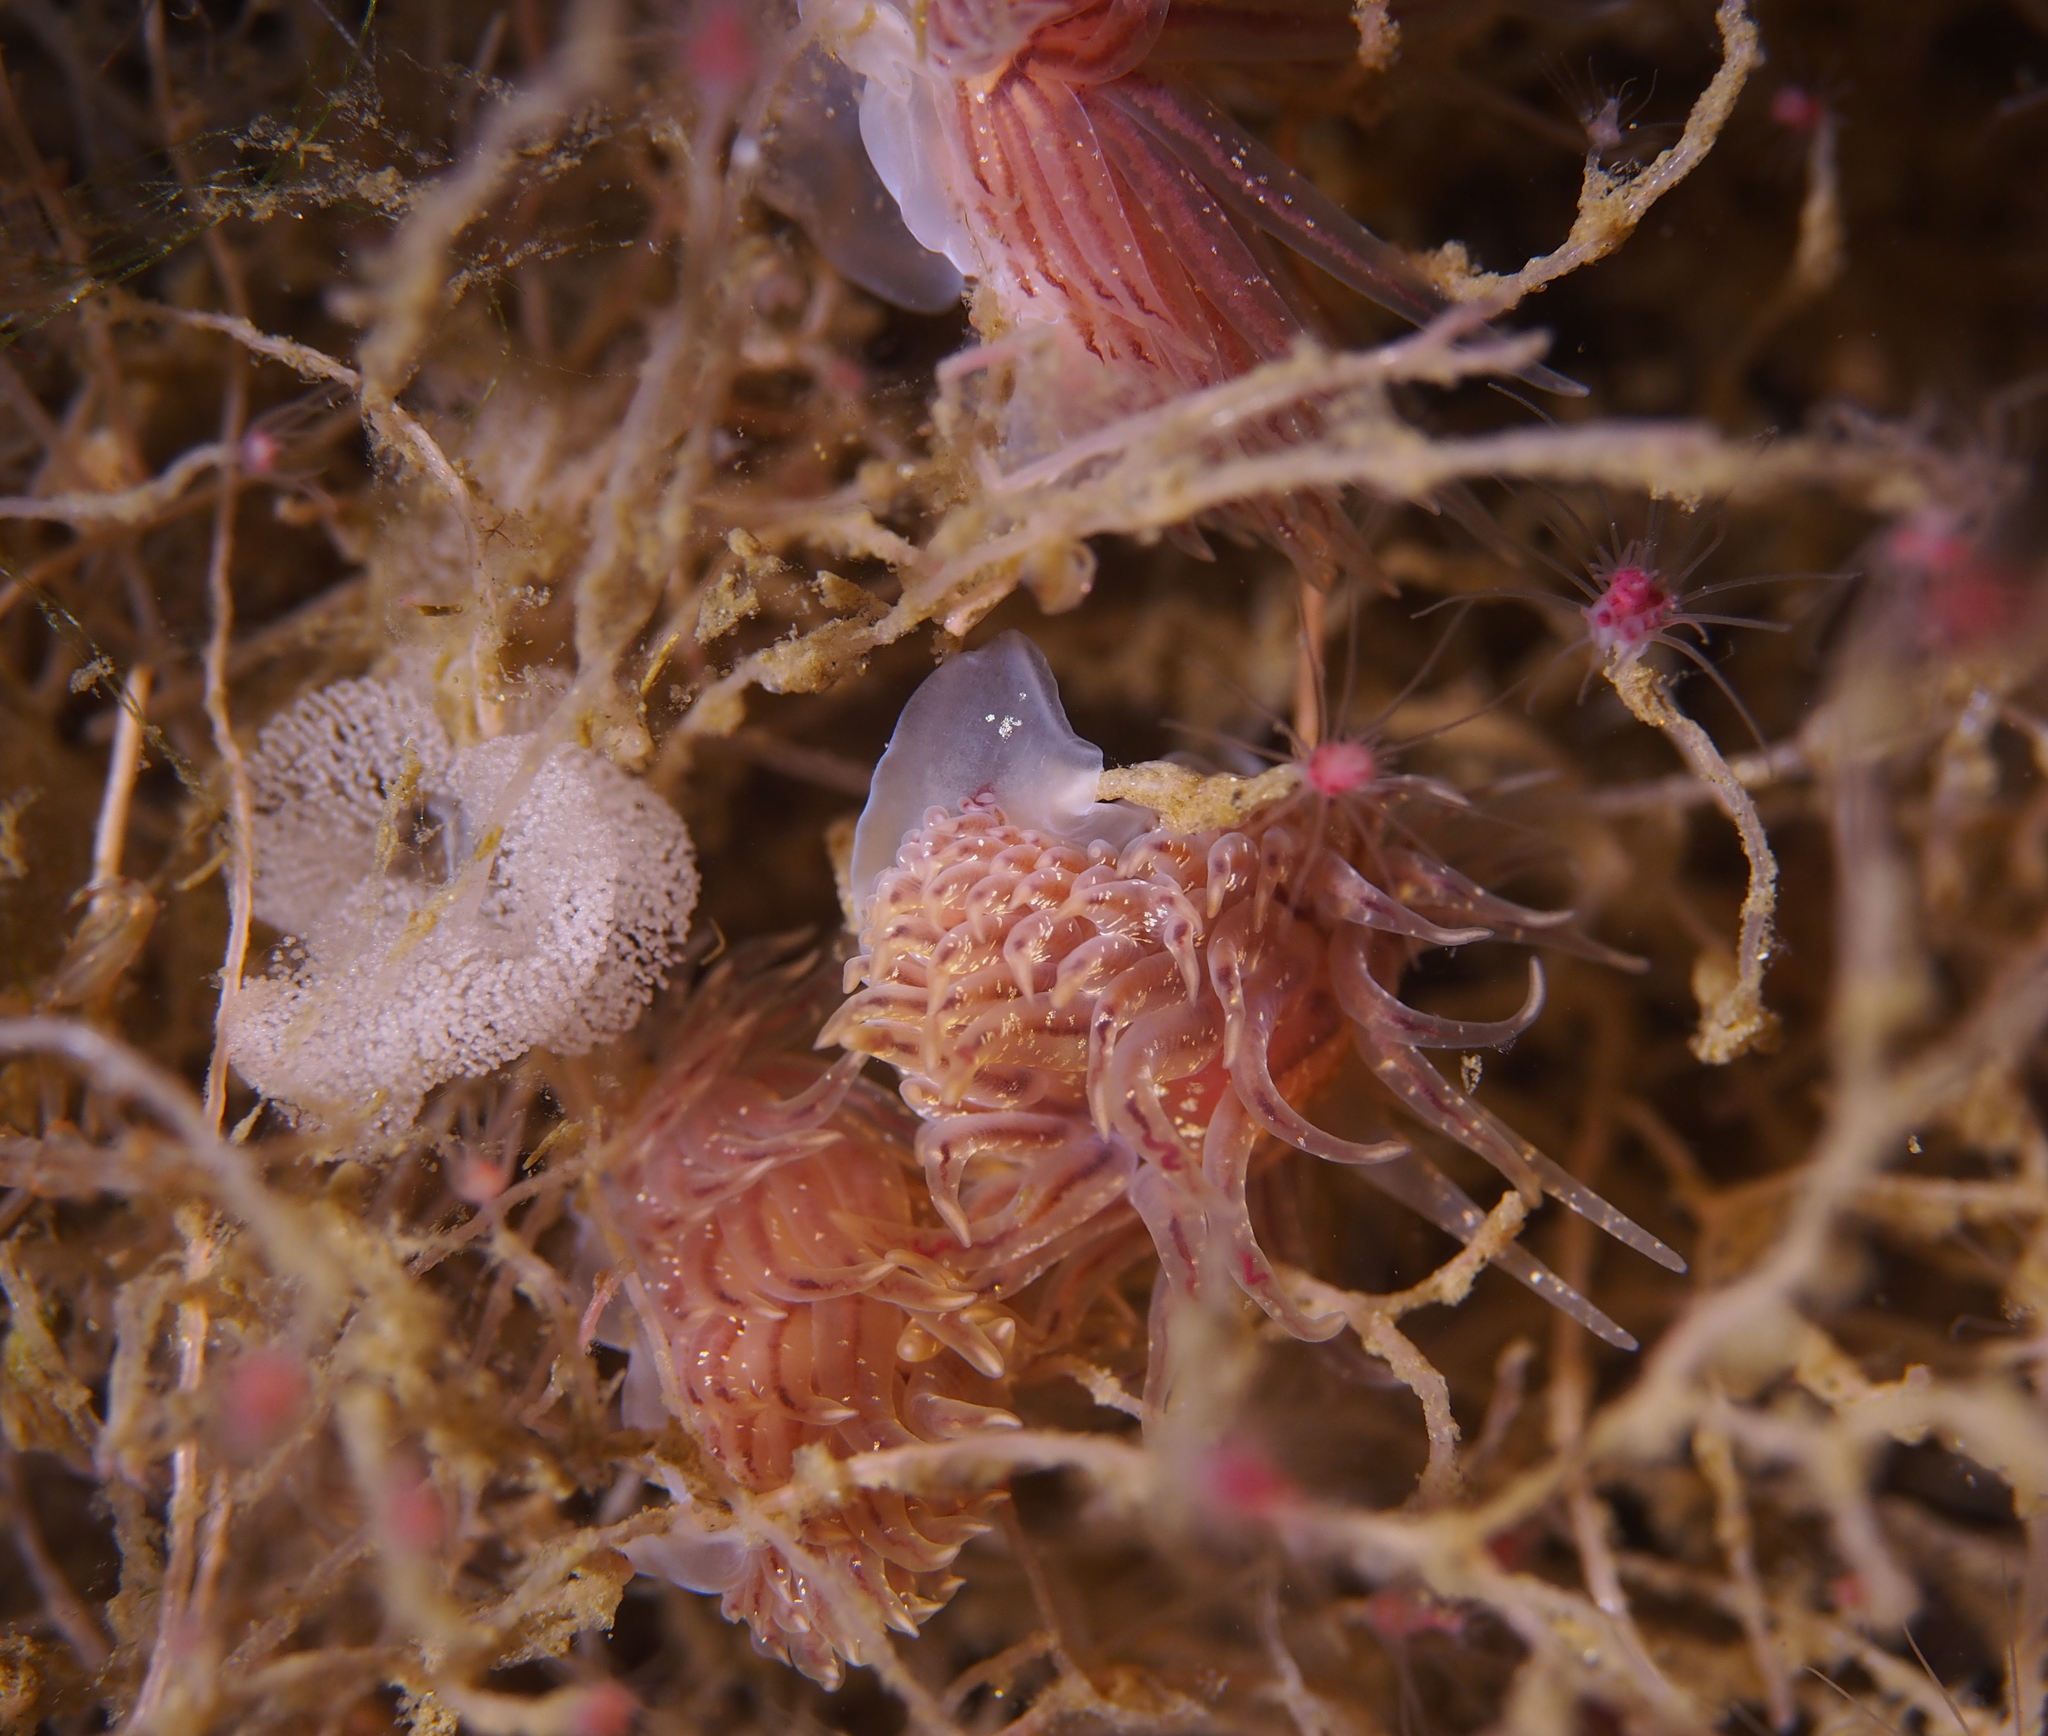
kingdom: Animalia
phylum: Mollusca
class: Gastropoda
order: Nudibranchia
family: Cumanotidae
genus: Cumanotus
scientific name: Cumanotus beaumonti
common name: Polyp aeolis
